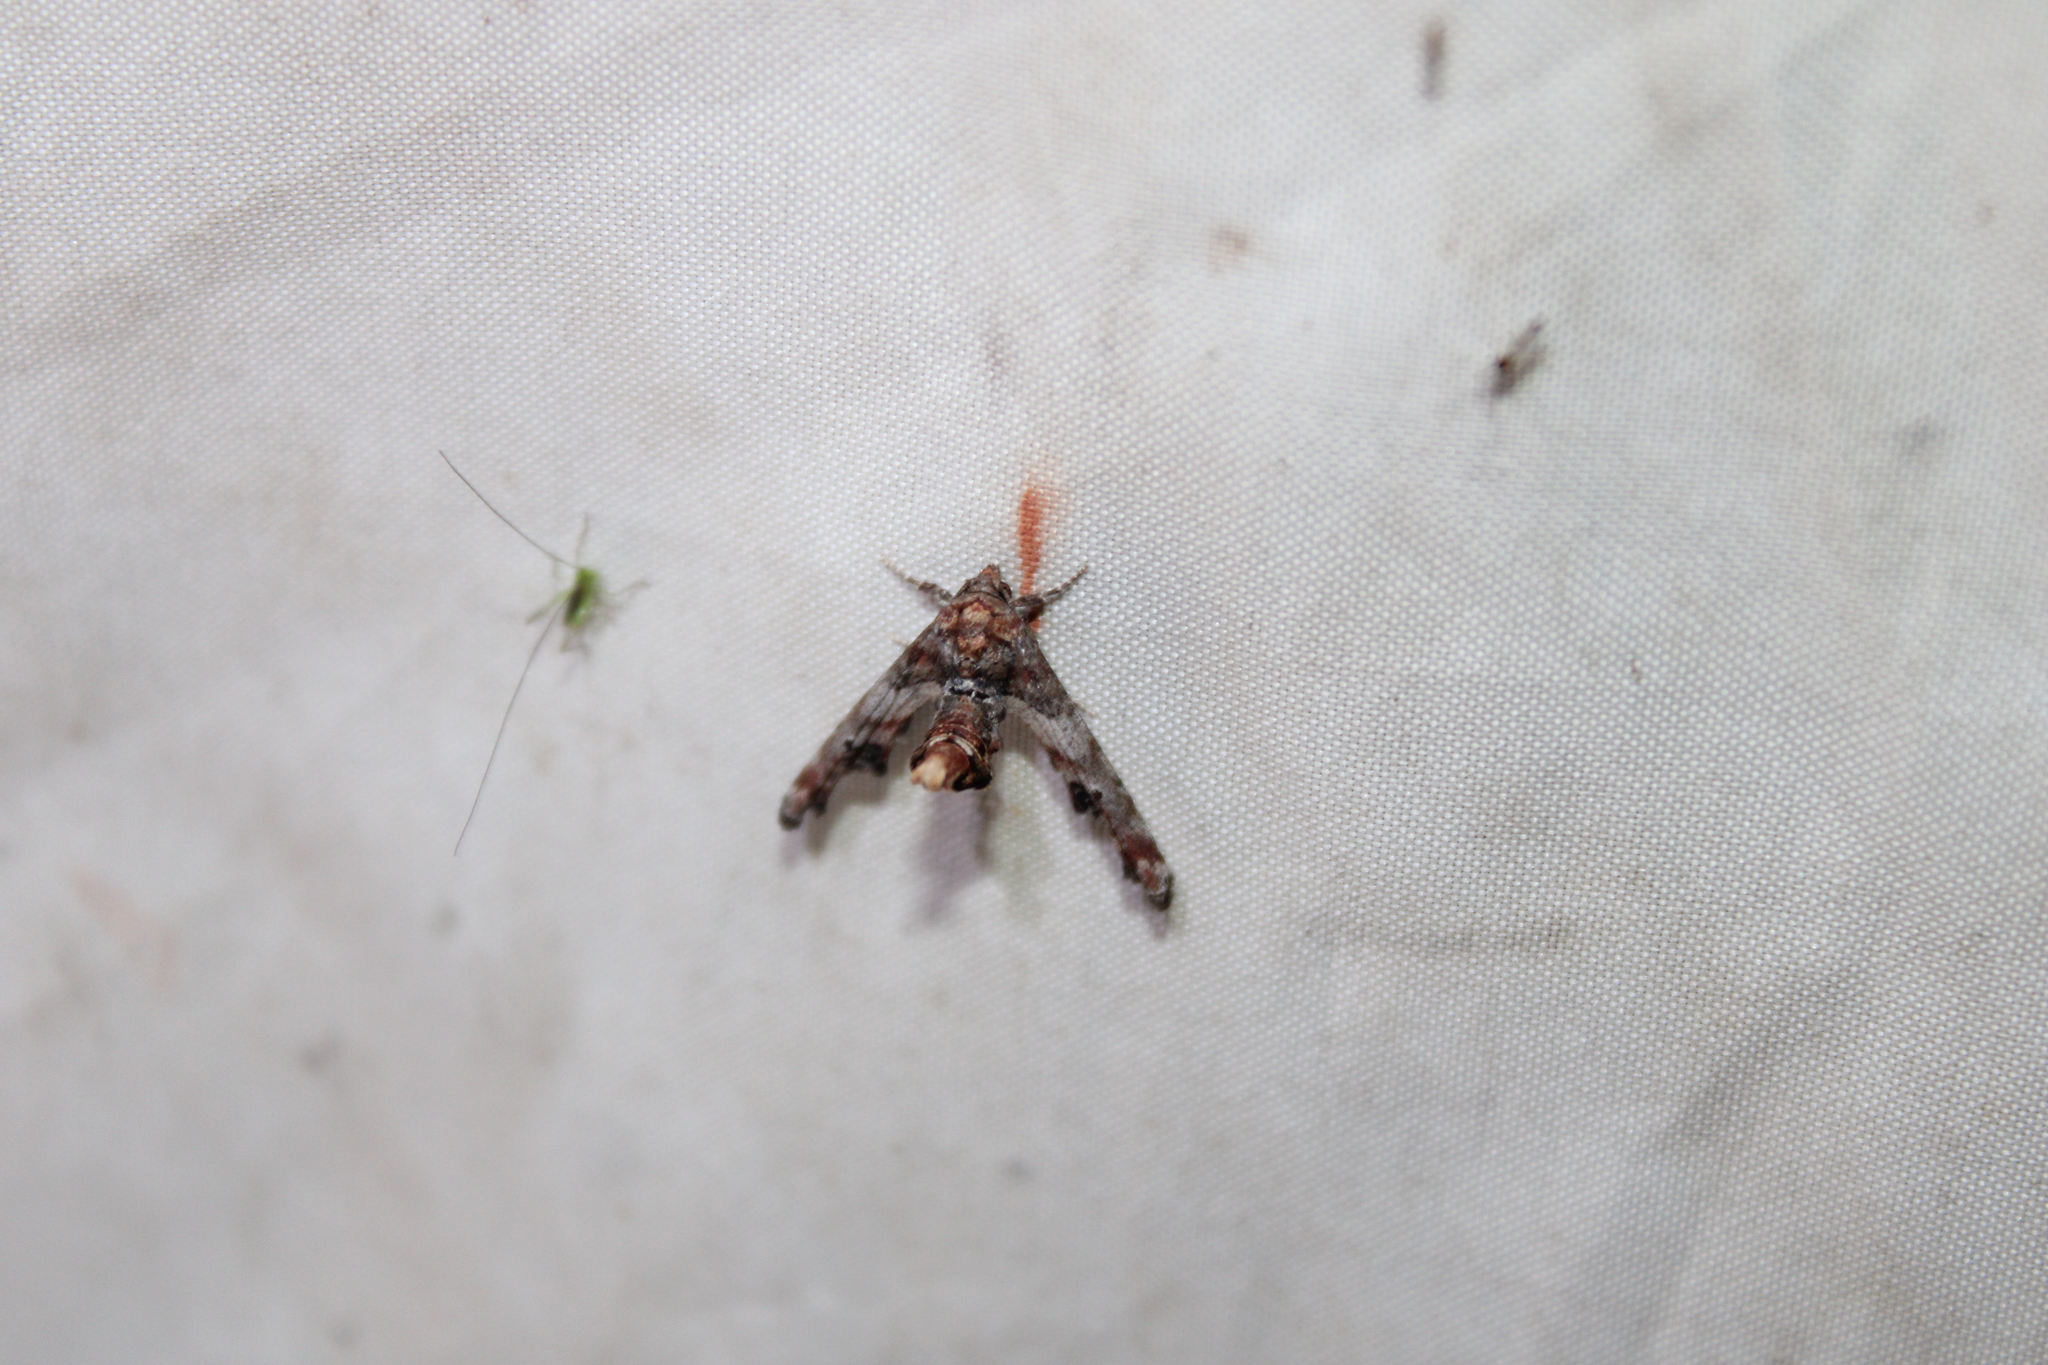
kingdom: Animalia
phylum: Arthropoda
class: Insecta
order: Lepidoptera
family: Euteliidae
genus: Marathyssa
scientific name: Marathyssa inficita
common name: Dark marathyssa moth
